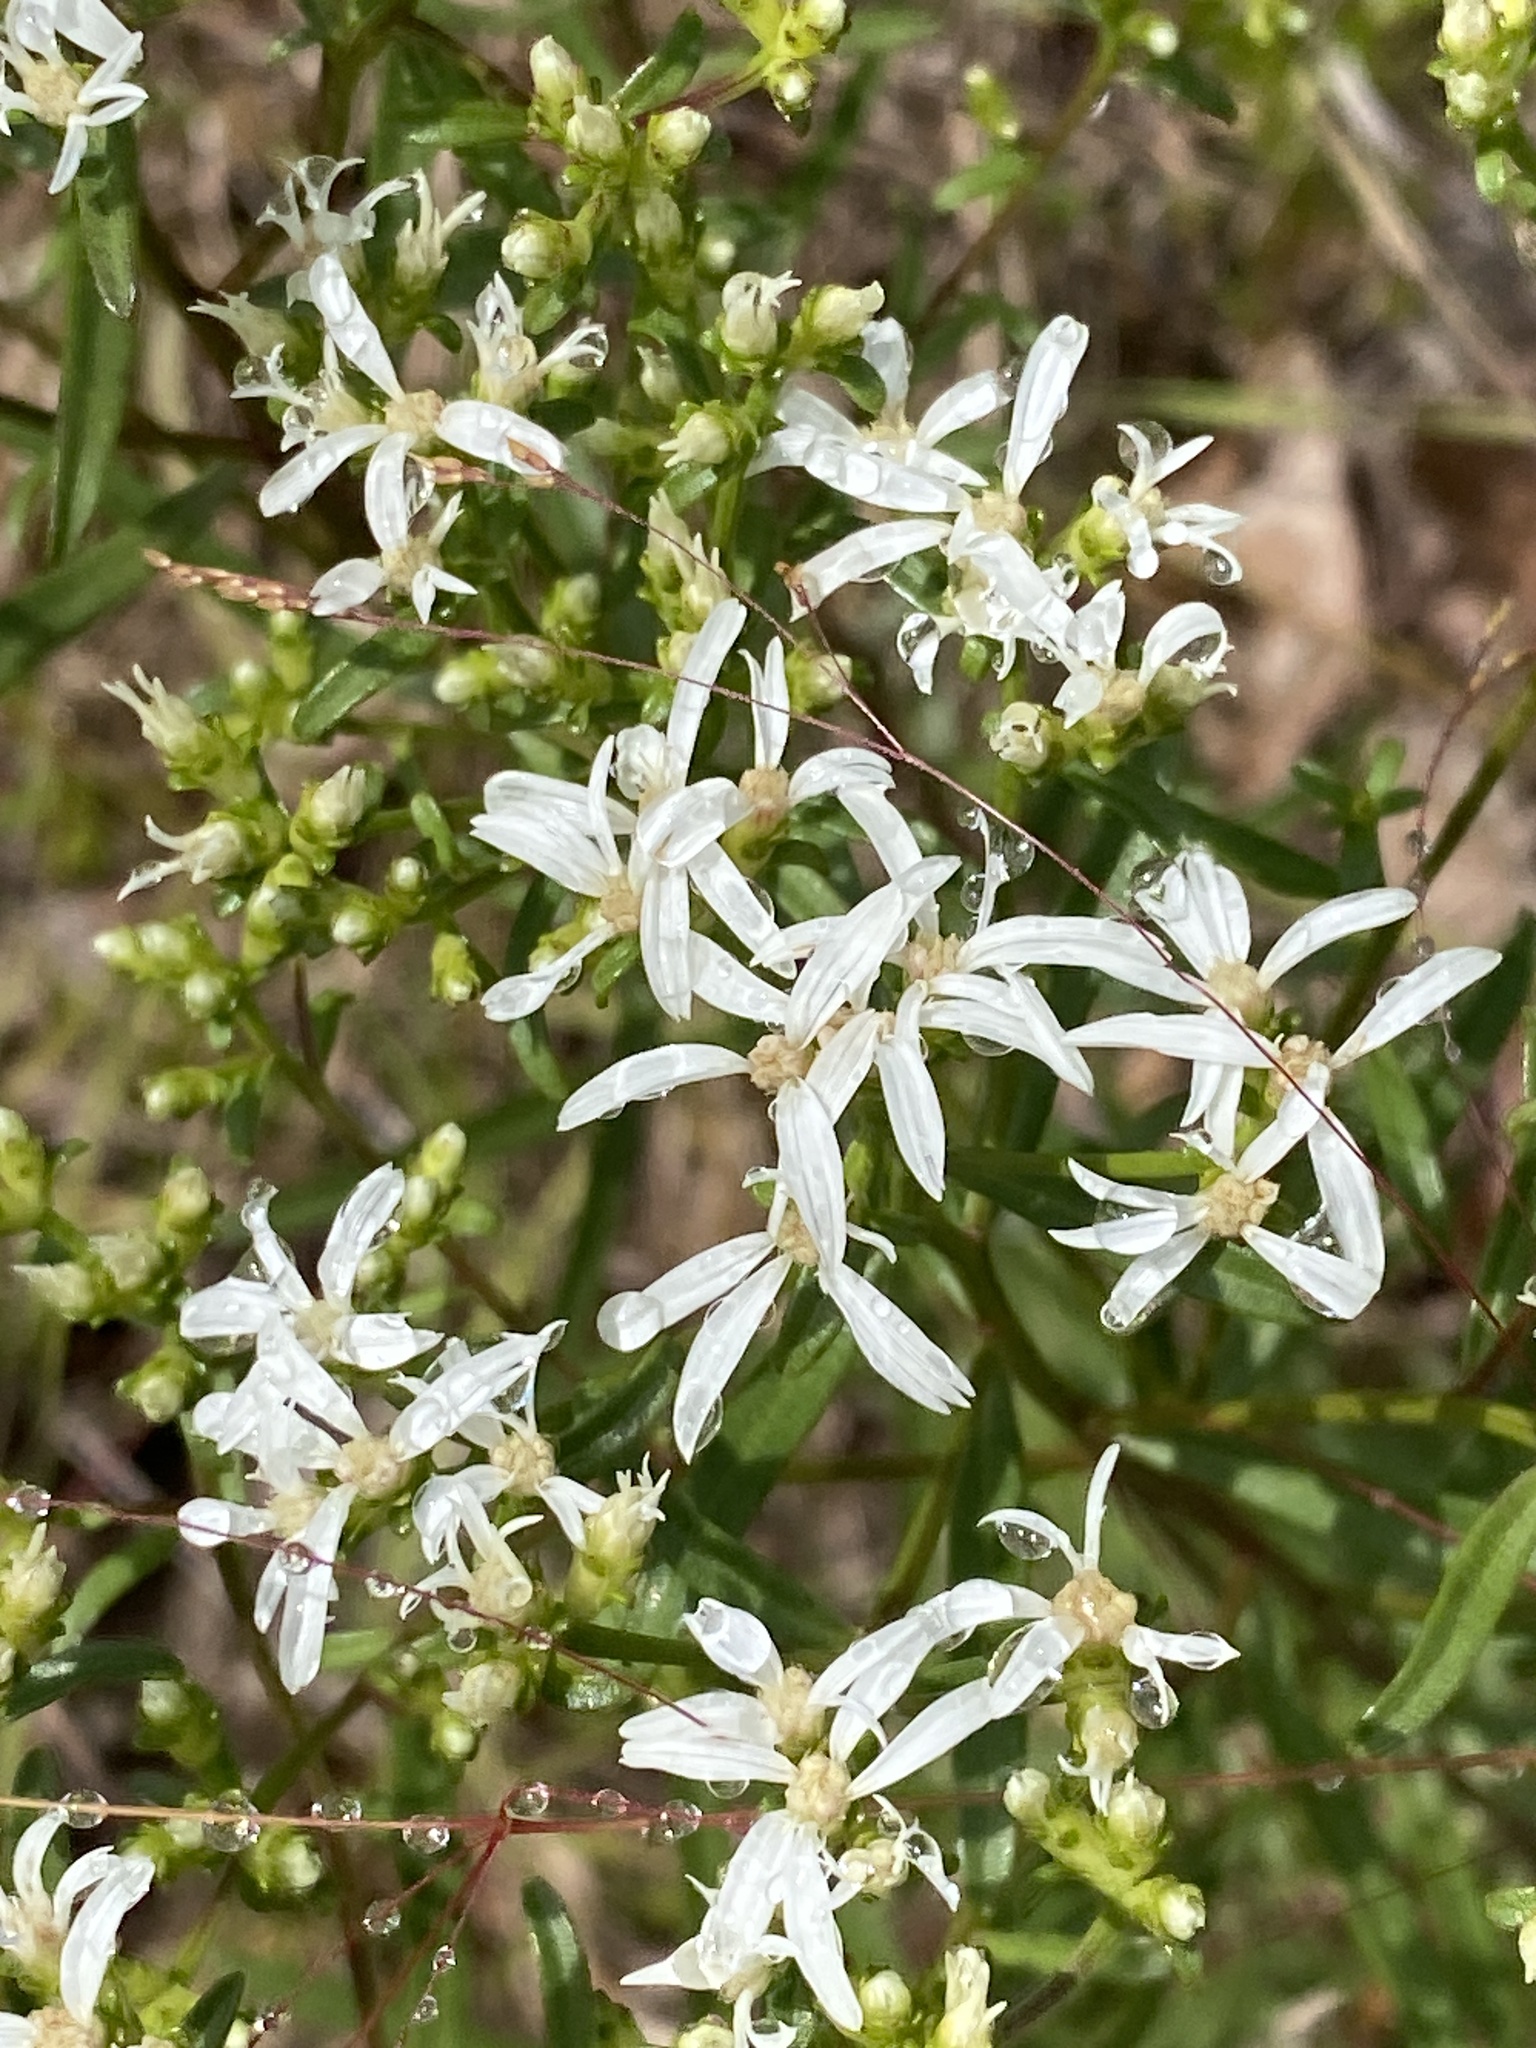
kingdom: Plantae
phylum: Tracheophyta
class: Magnoliopsida
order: Asterales
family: Asteraceae
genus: Sericocarpus
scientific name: Sericocarpus linifolius
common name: Narrow-leaf aster
